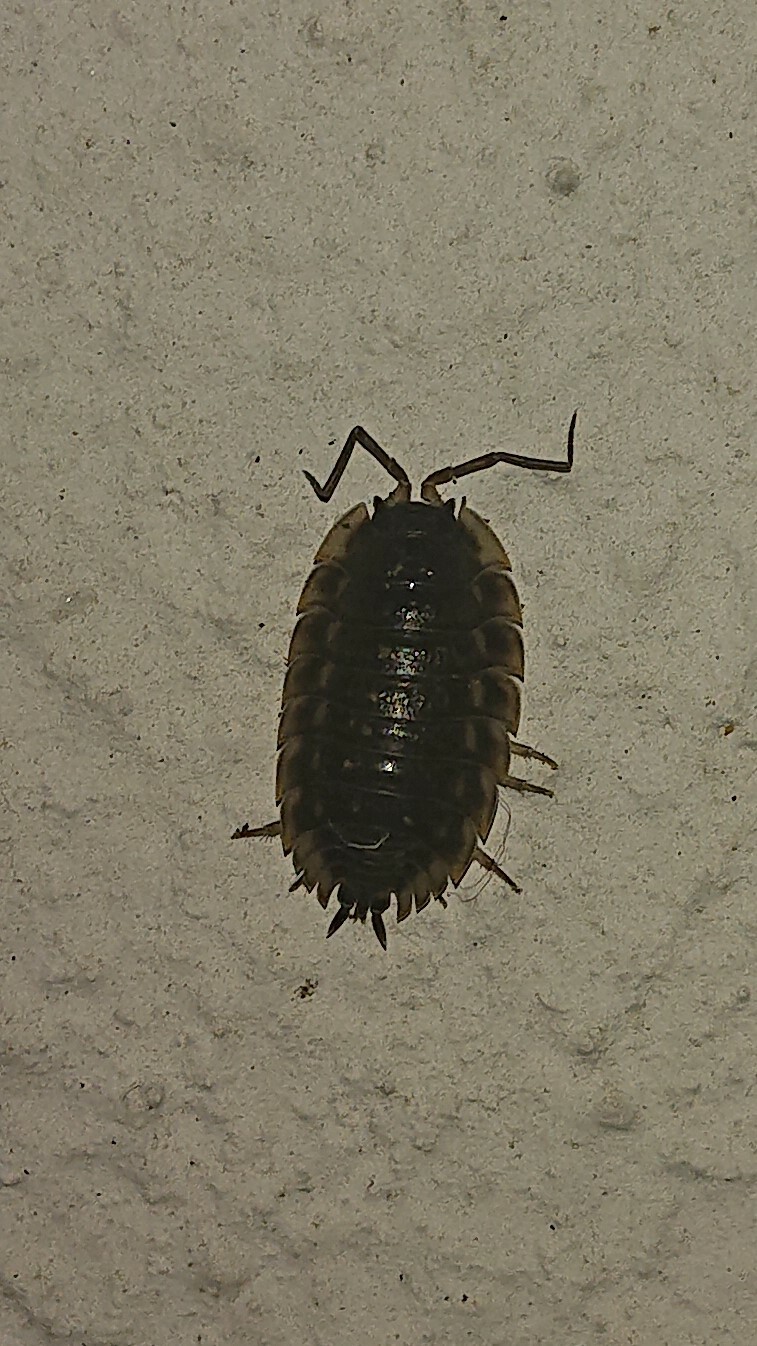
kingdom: Animalia
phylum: Arthropoda
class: Malacostraca
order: Isopoda
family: Oniscidae
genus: Oniscus
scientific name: Oniscus asellus
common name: Common shiny woodlouse
